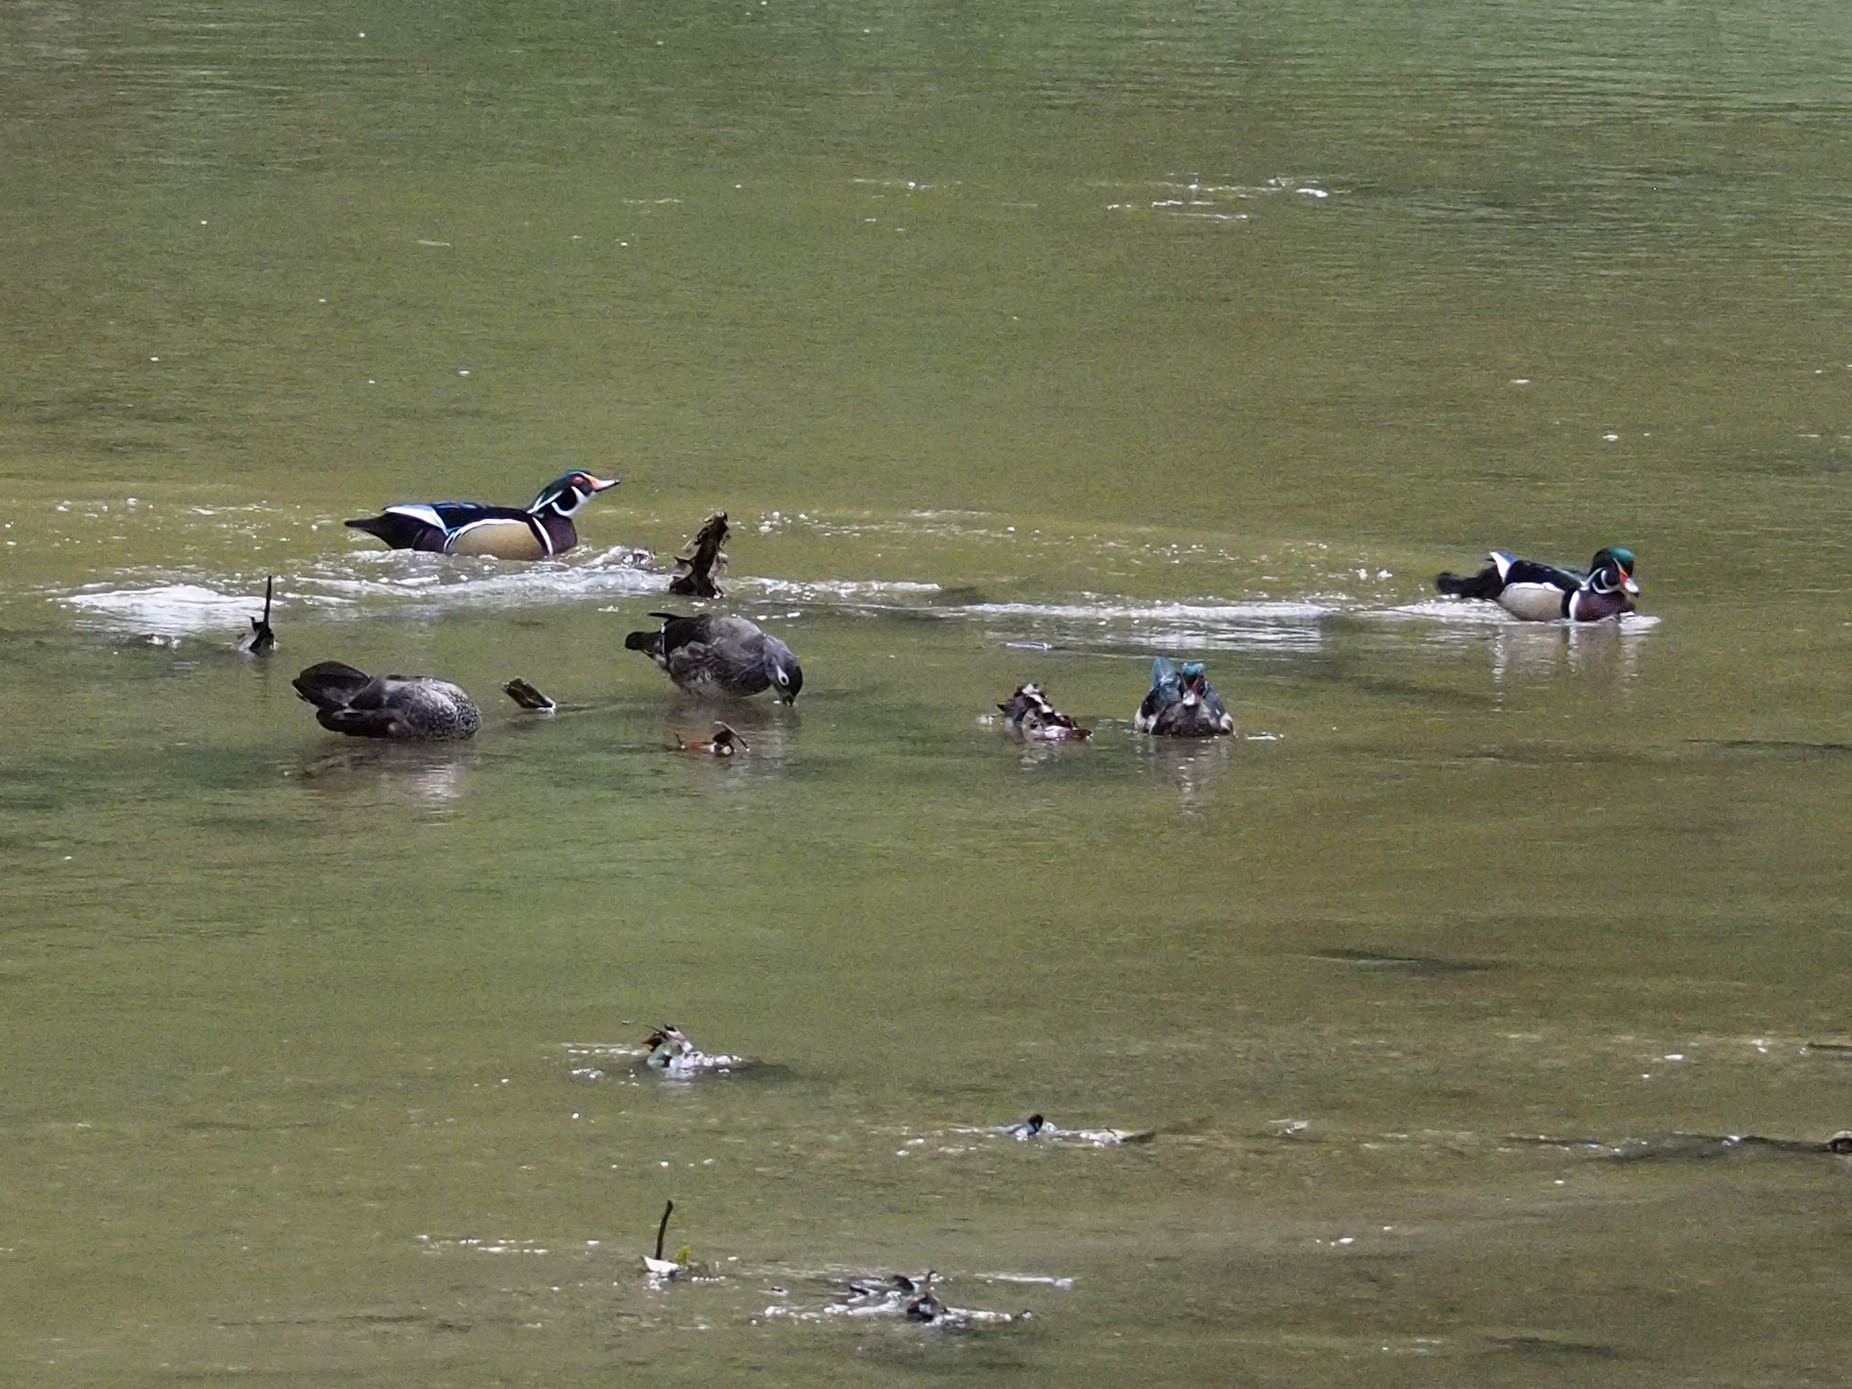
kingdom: Animalia
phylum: Chordata
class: Aves
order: Anseriformes
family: Anatidae
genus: Aix
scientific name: Aix sponsa
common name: Wood duck
